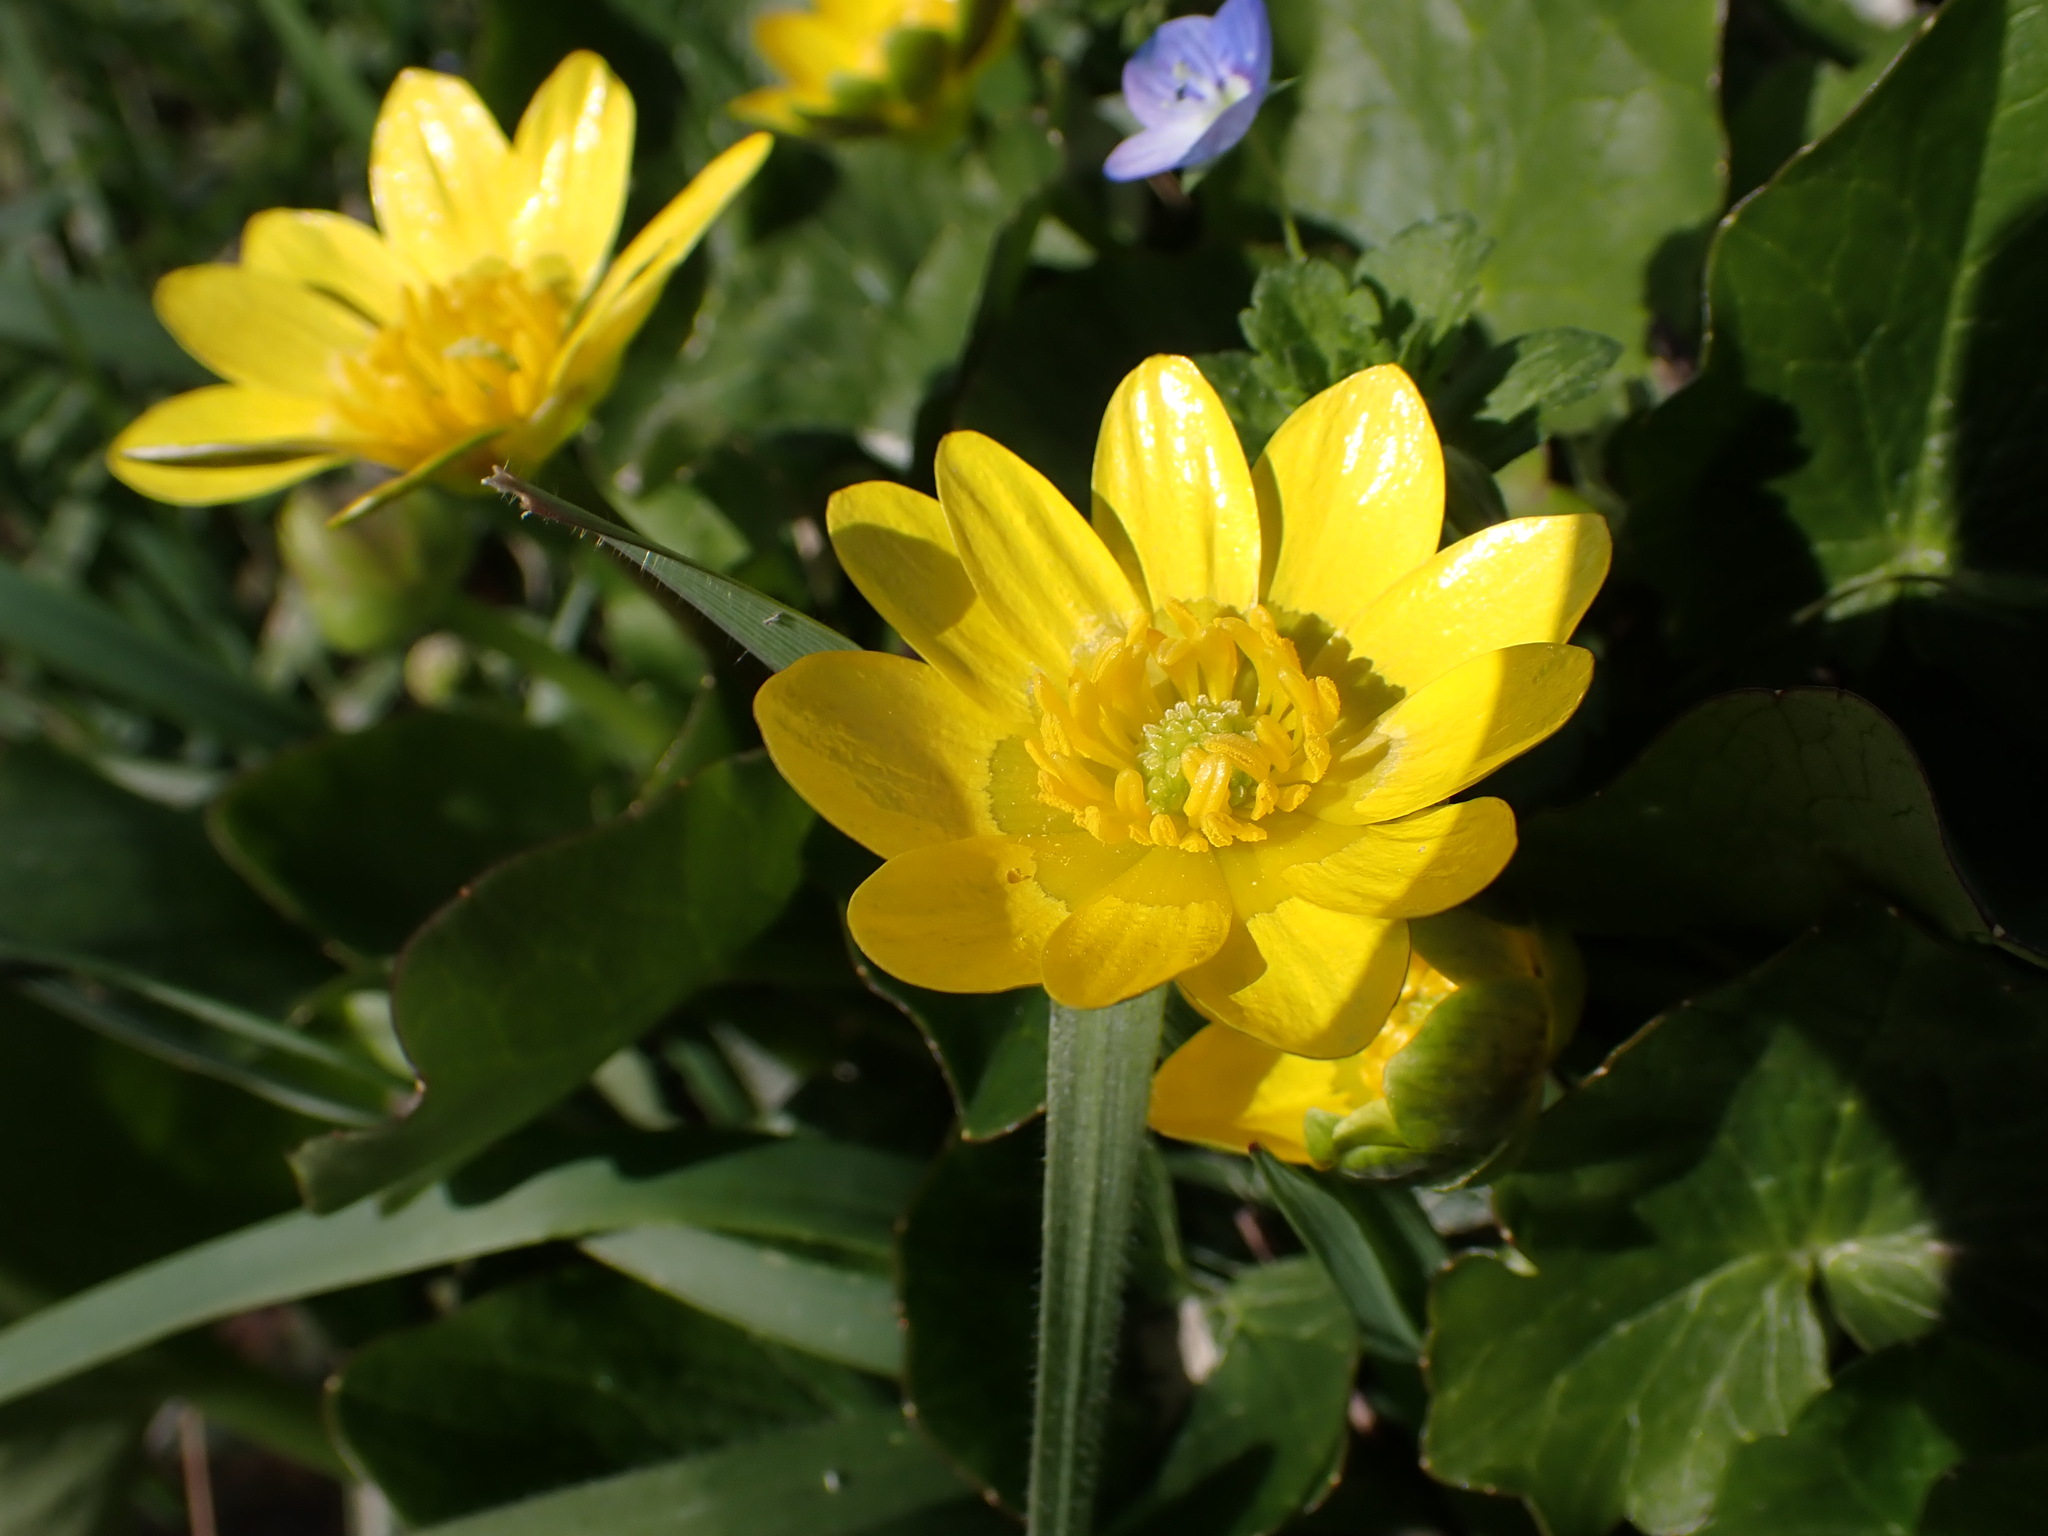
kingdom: Plantae
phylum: Tracheophyta
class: Magnoliopsida
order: Ranunculales
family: Ranunculaceae
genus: Ficaria
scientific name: Ficaria verna
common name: Lesser celandine
